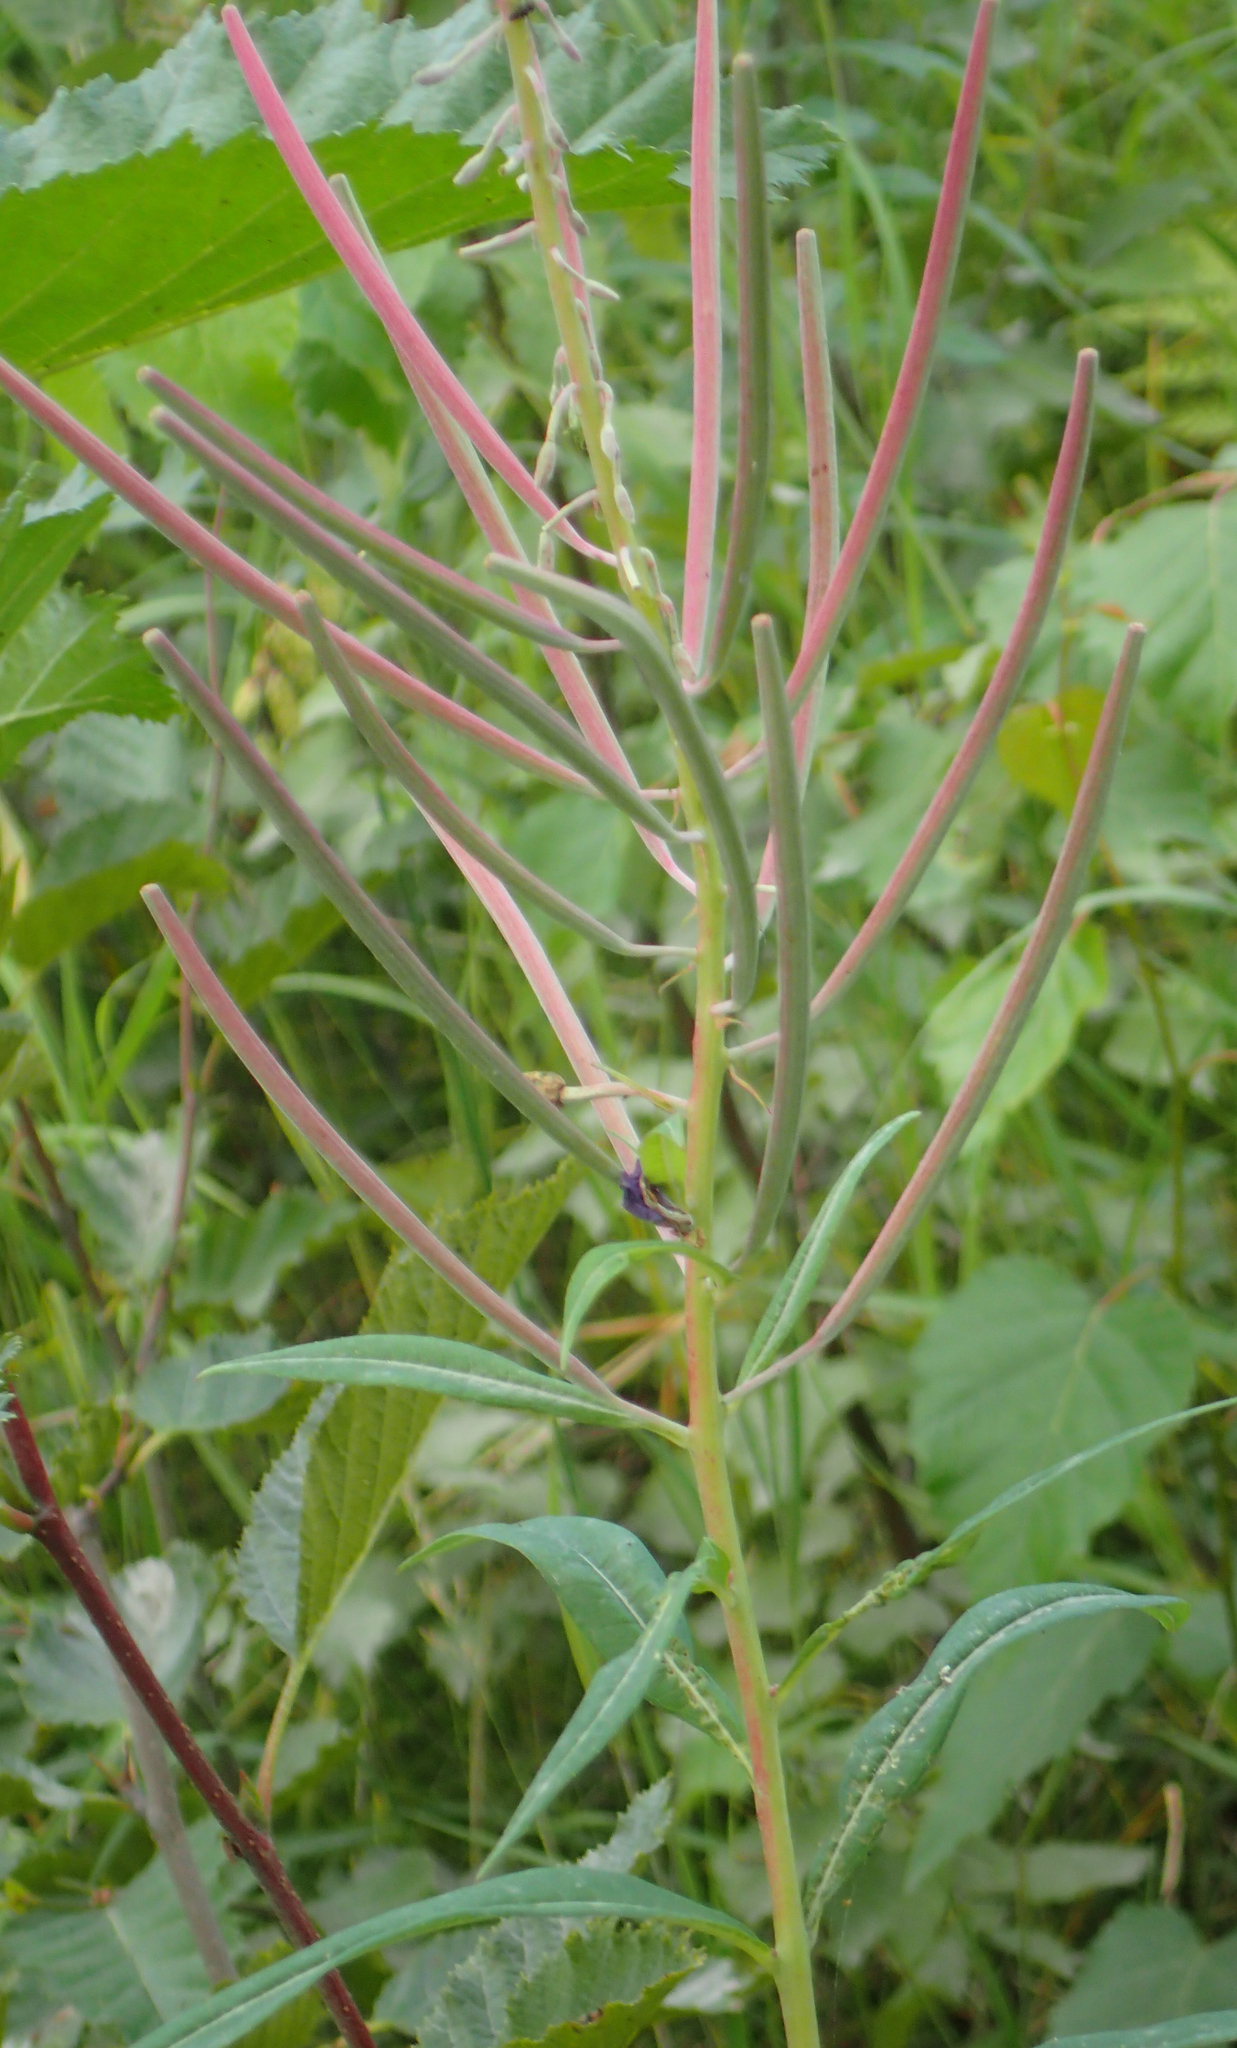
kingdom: Plantae
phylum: Tracheophyta
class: Magnoliopsida
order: Myrtales
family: Onagraceae
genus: Chamaenerion
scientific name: Chamaenerion angustifolium
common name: Fireweed
